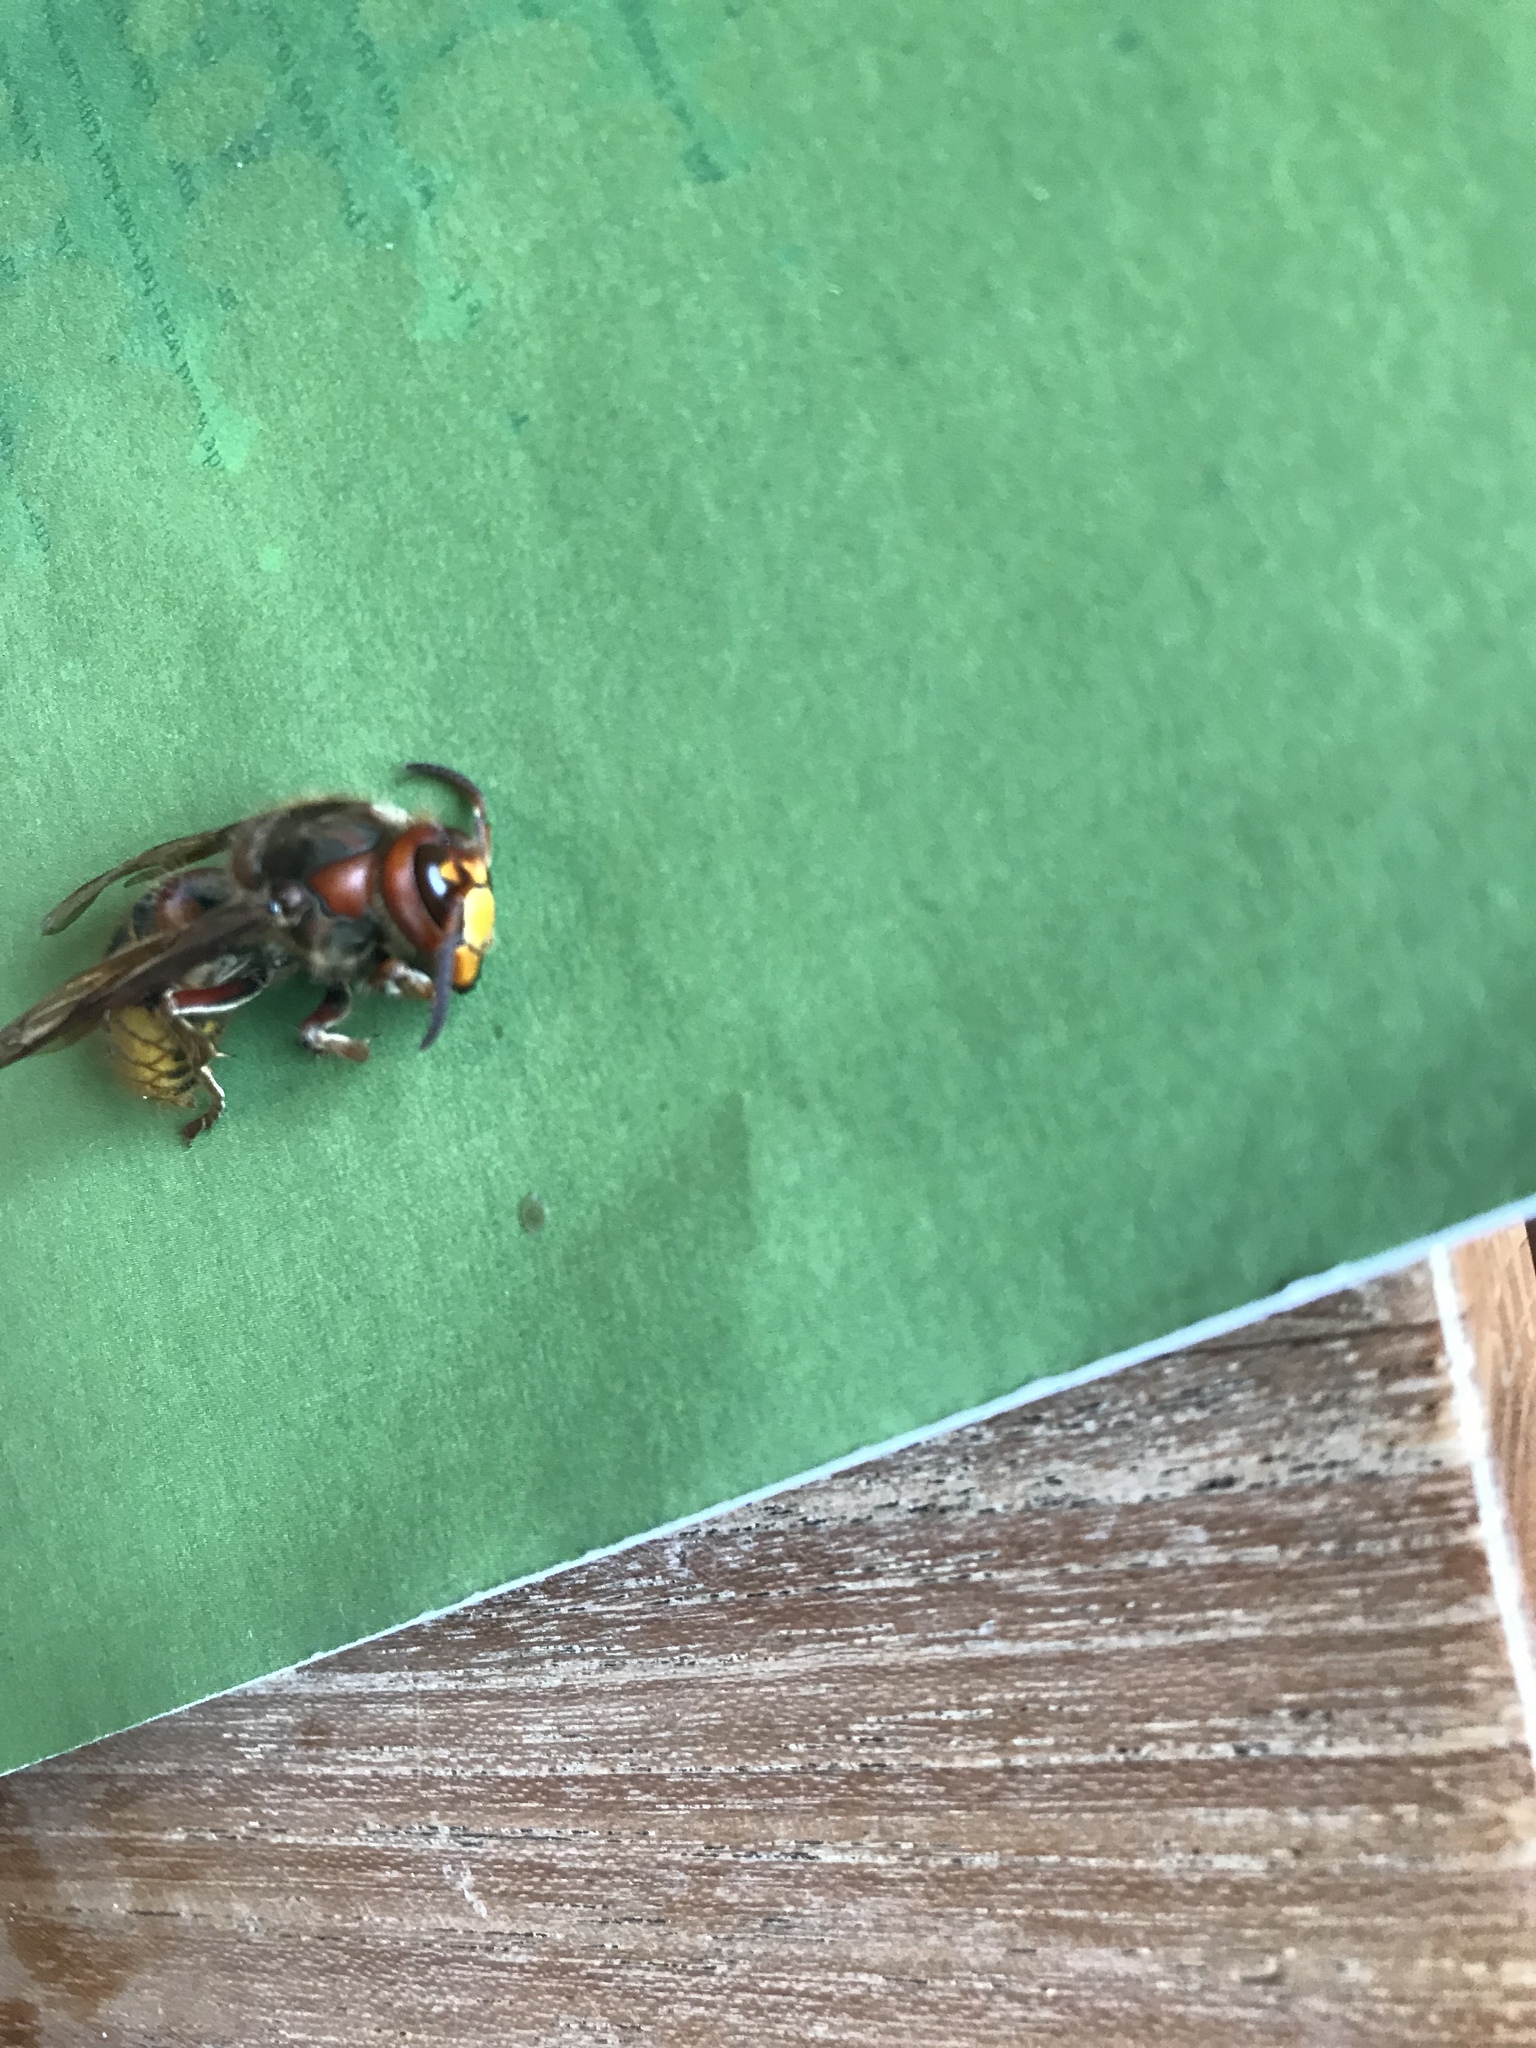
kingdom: Animalia
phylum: Arthropoda
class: Insecta
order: Hymenoptera
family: Vespidae
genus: Vespa
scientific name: Vespa crabro
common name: Hornet
